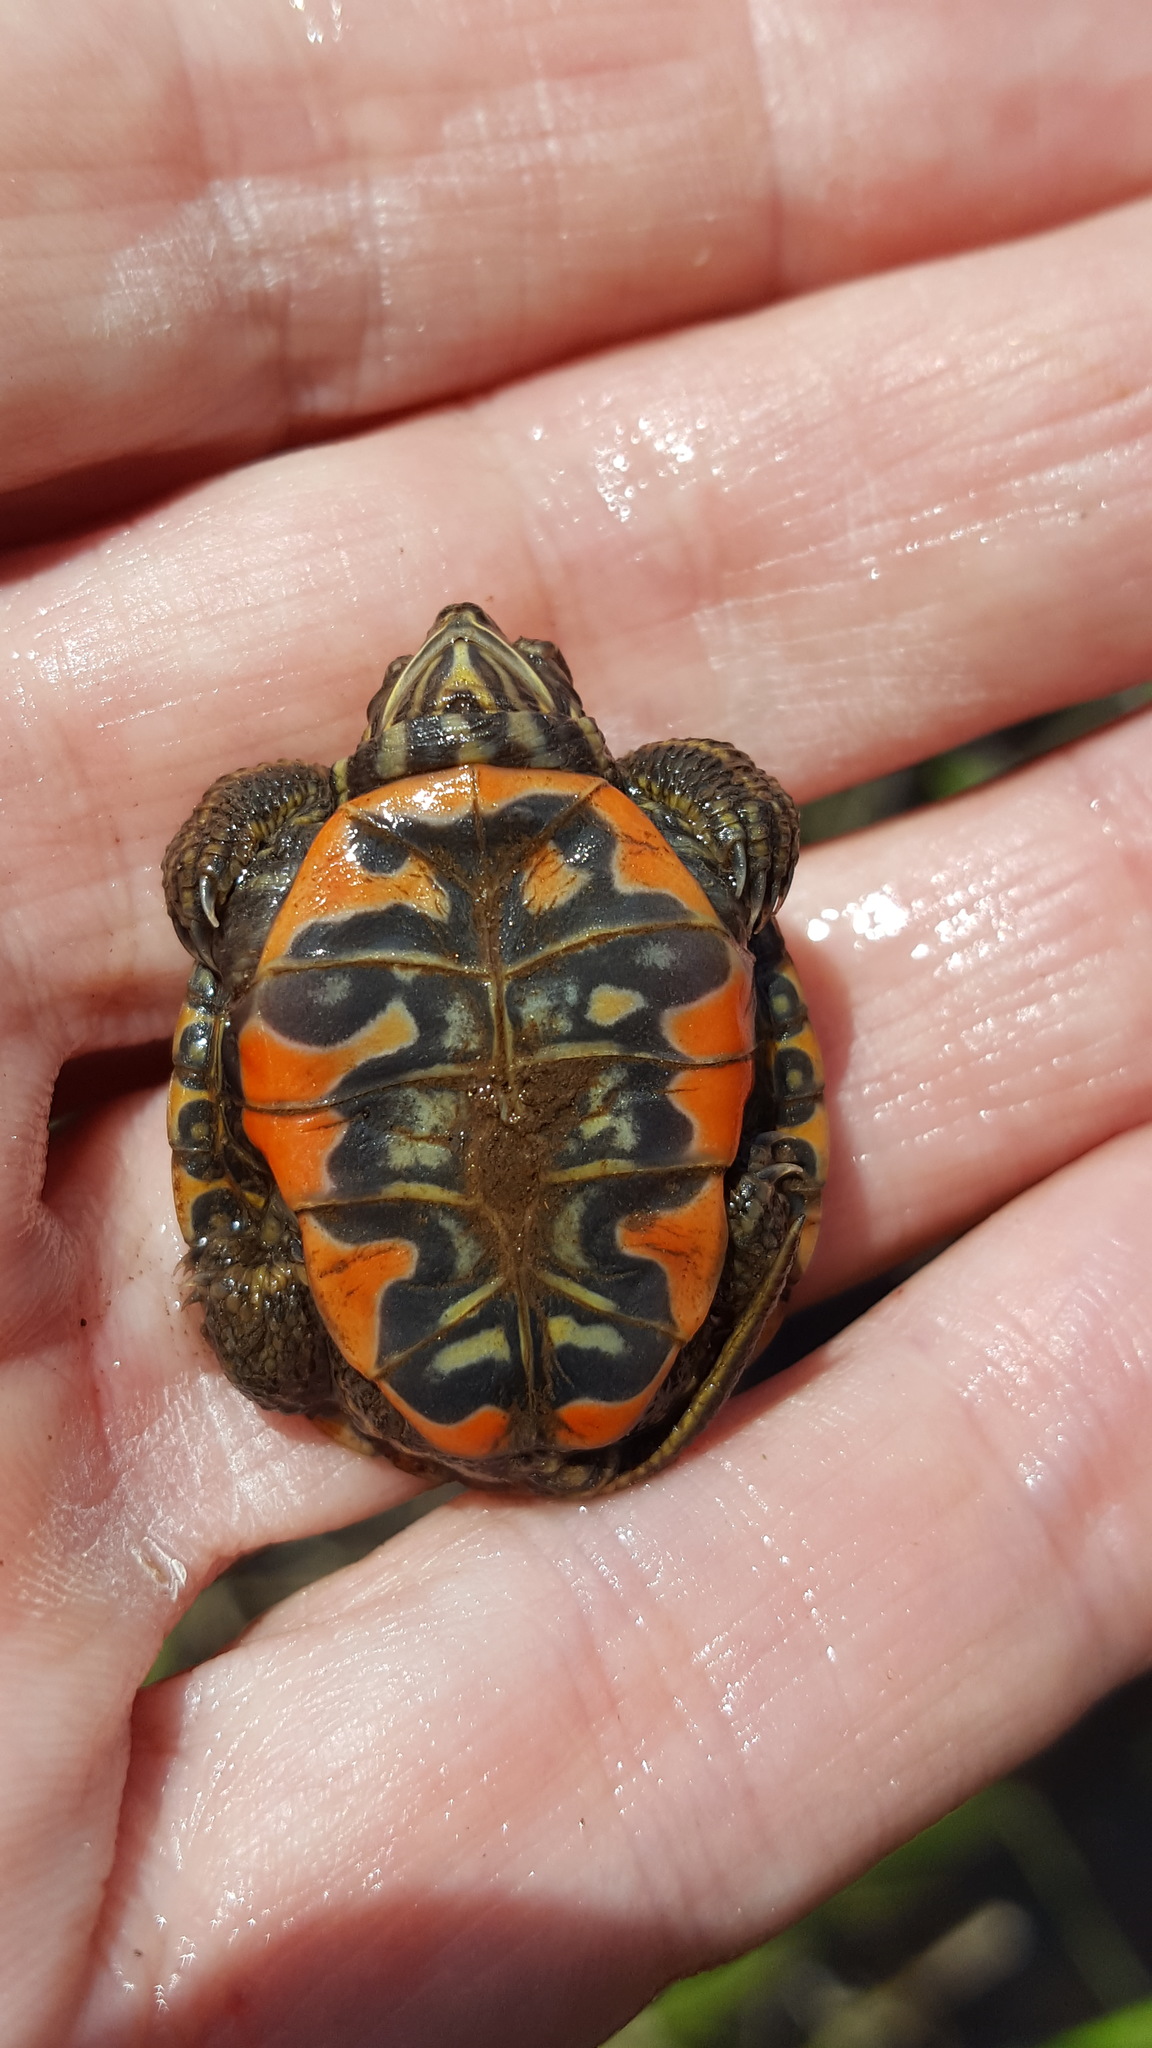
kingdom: Animalia
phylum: Chordata
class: Testudines
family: Emydidae
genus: Chrysemys
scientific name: Chrysemys picta
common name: Painted turtle
